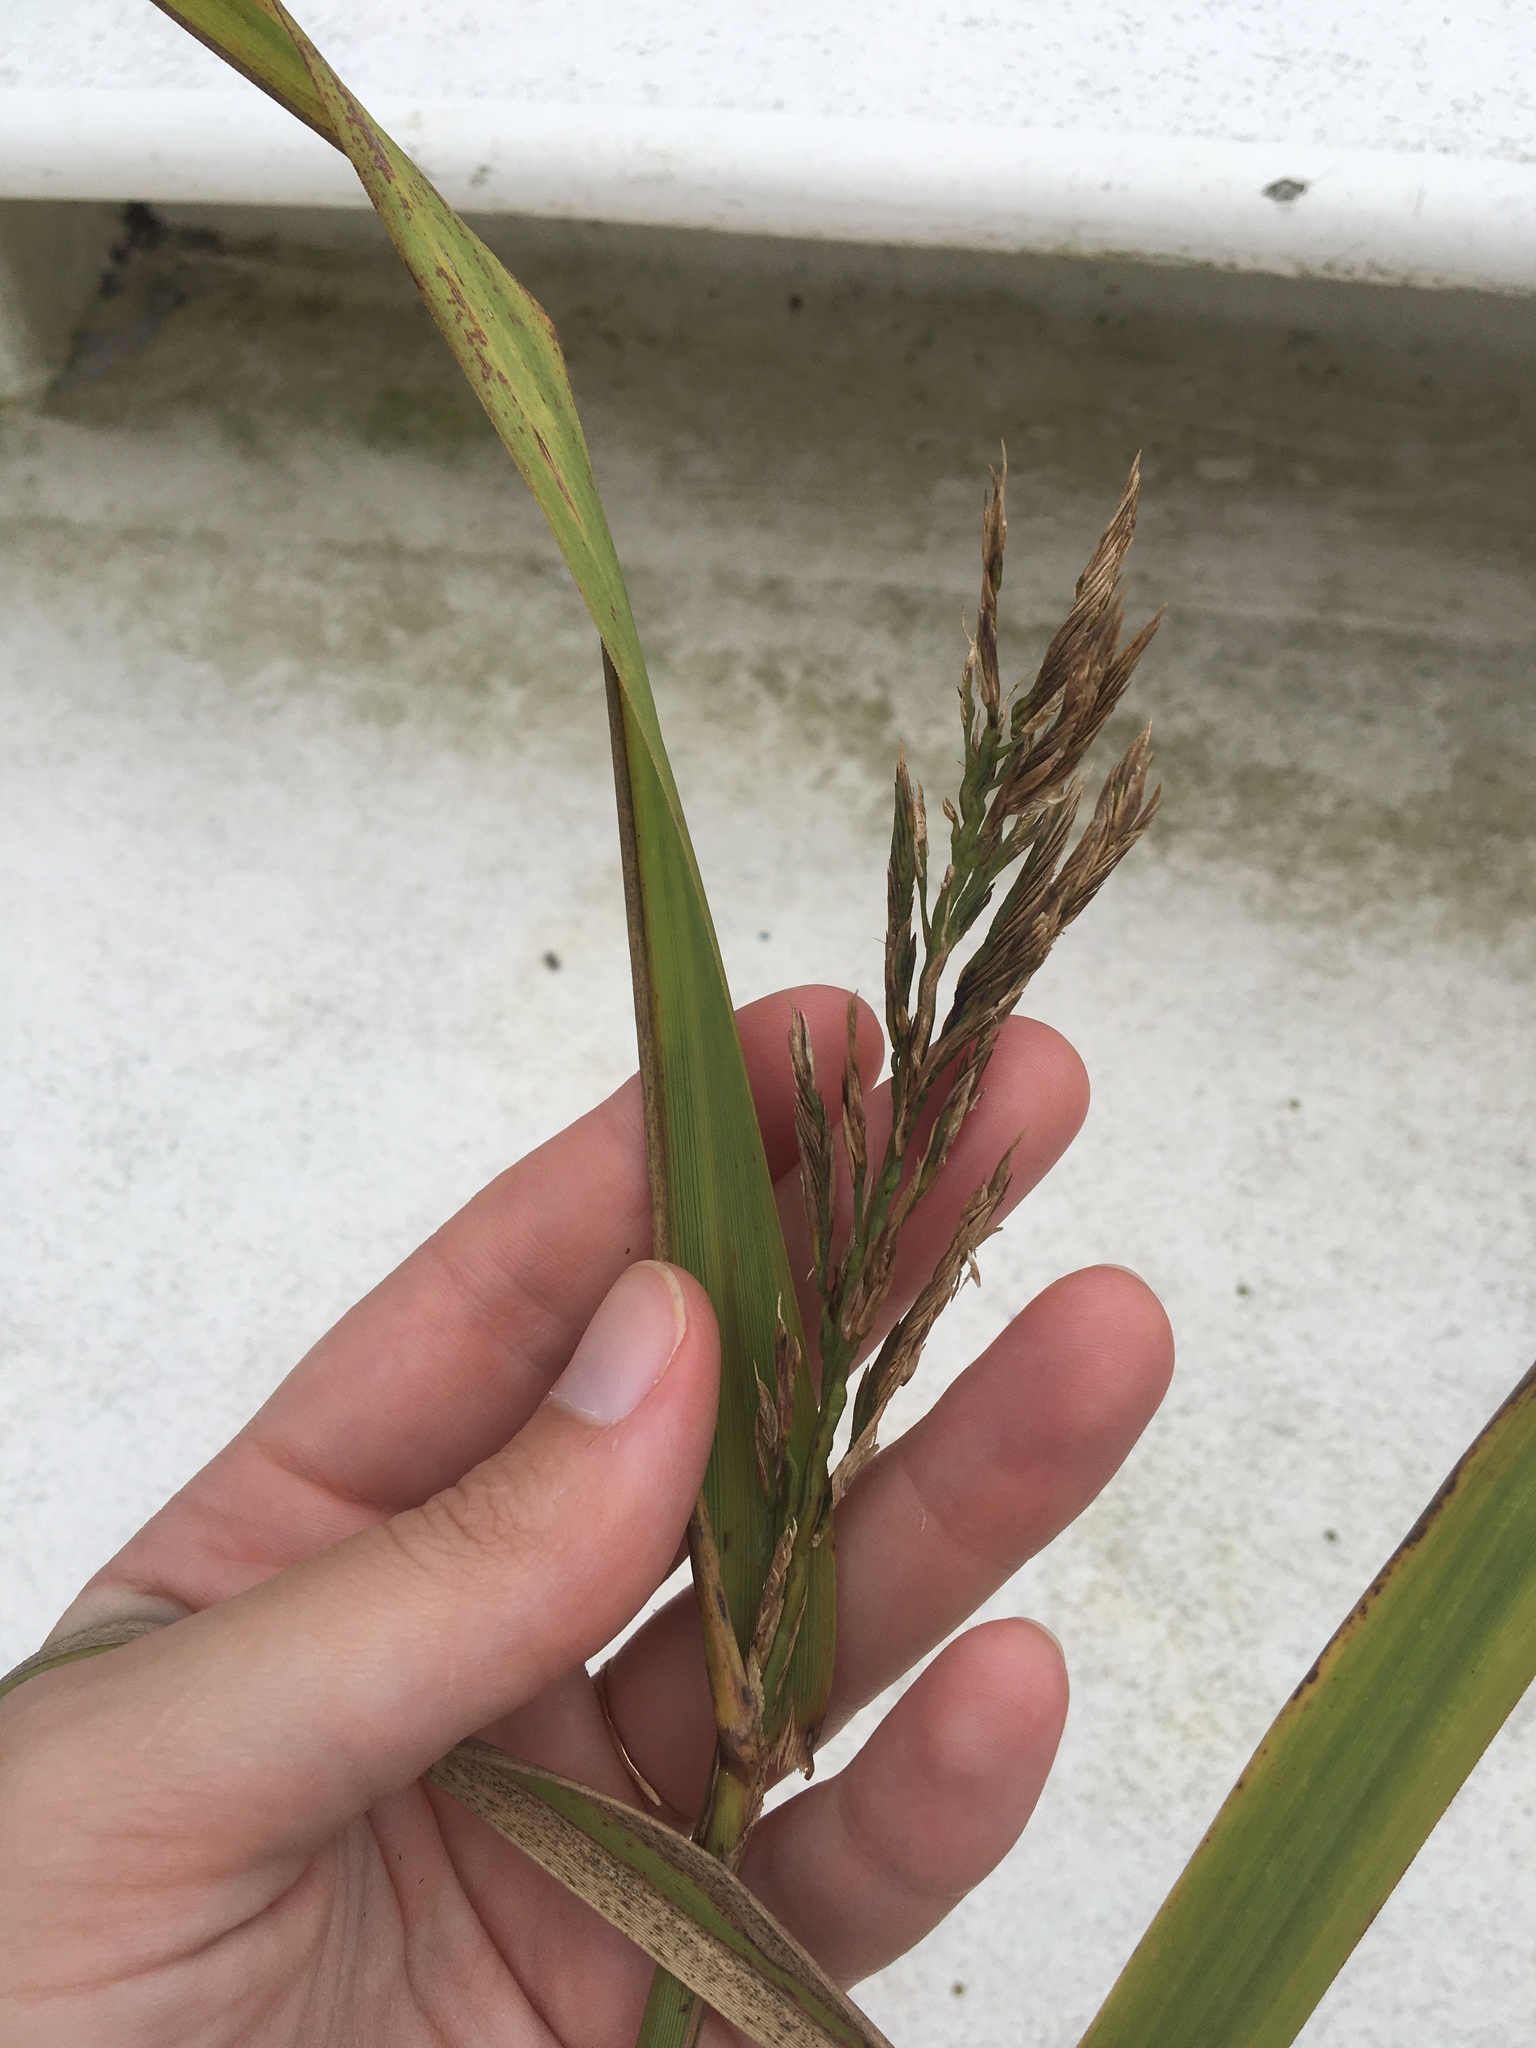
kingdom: Plantae
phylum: Tracheophyta
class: Liliopsida
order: Poales
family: Poaceae
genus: Sporobolus
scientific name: Sporobolus cynosuroides
